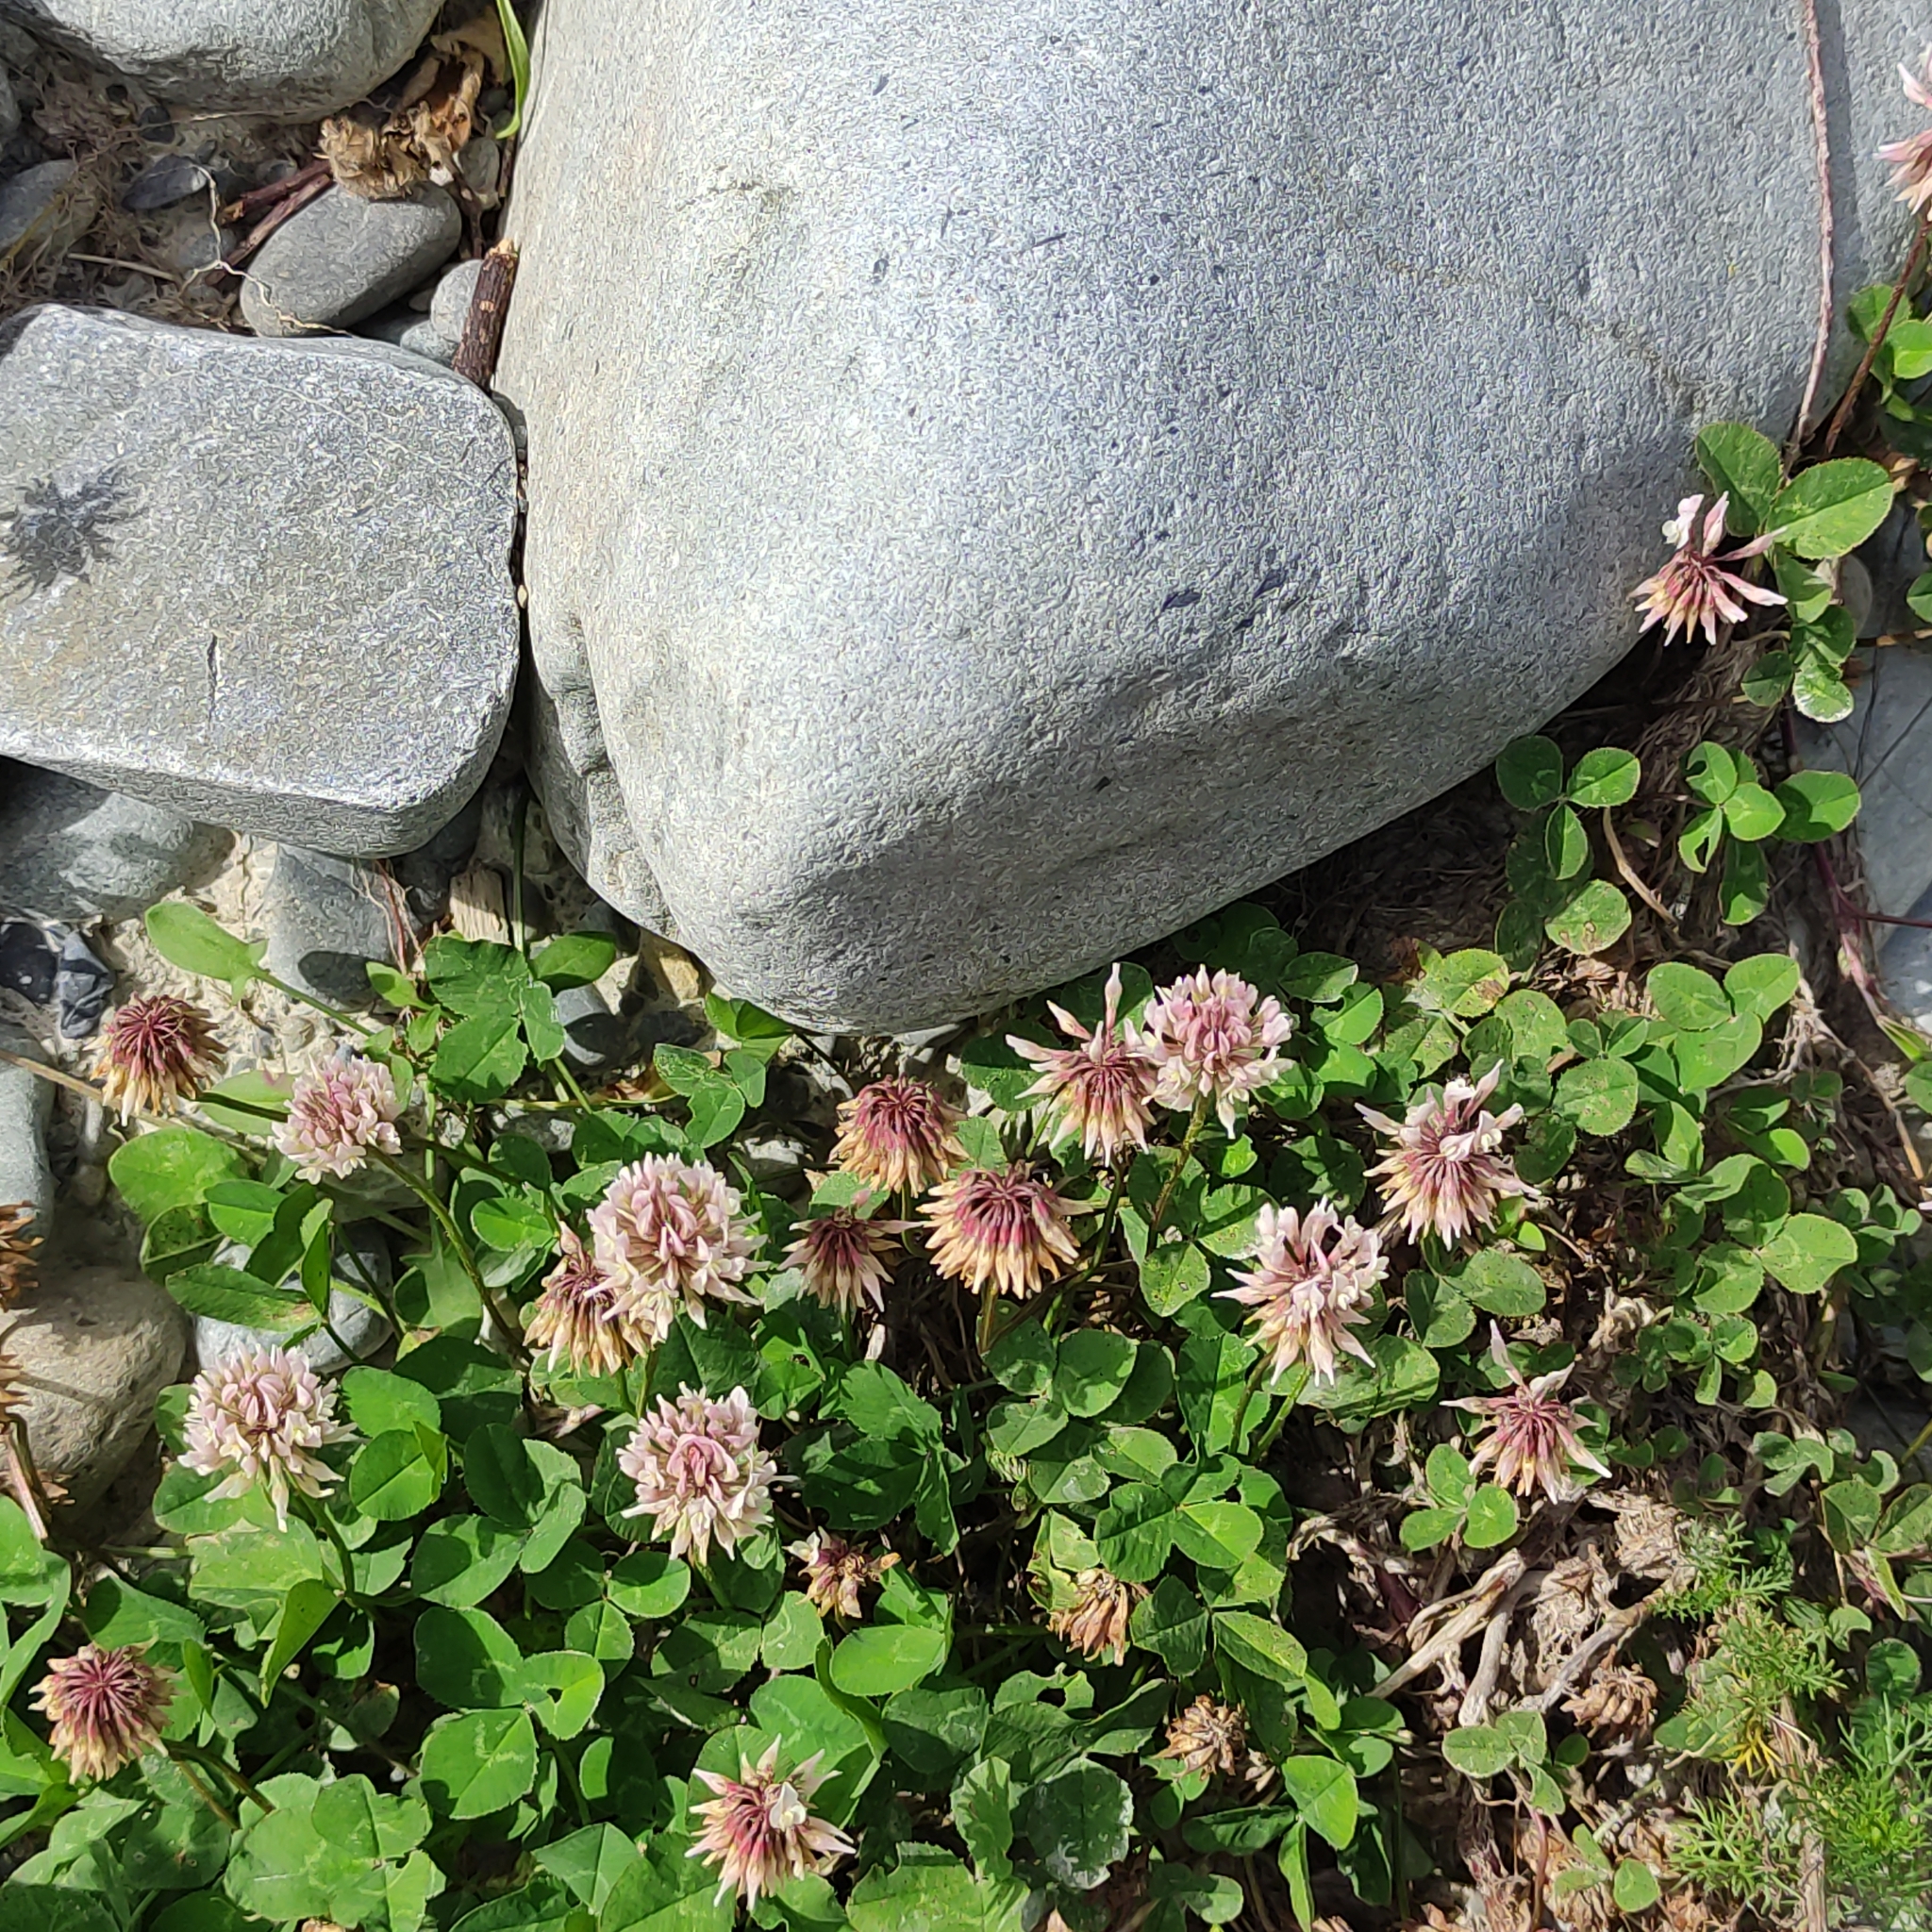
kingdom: Plantae
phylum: Tracheophyta
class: Magnoliopsida
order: Fabales
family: Fabaceae
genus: Trifolium
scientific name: Trifolium repens
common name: White clover
